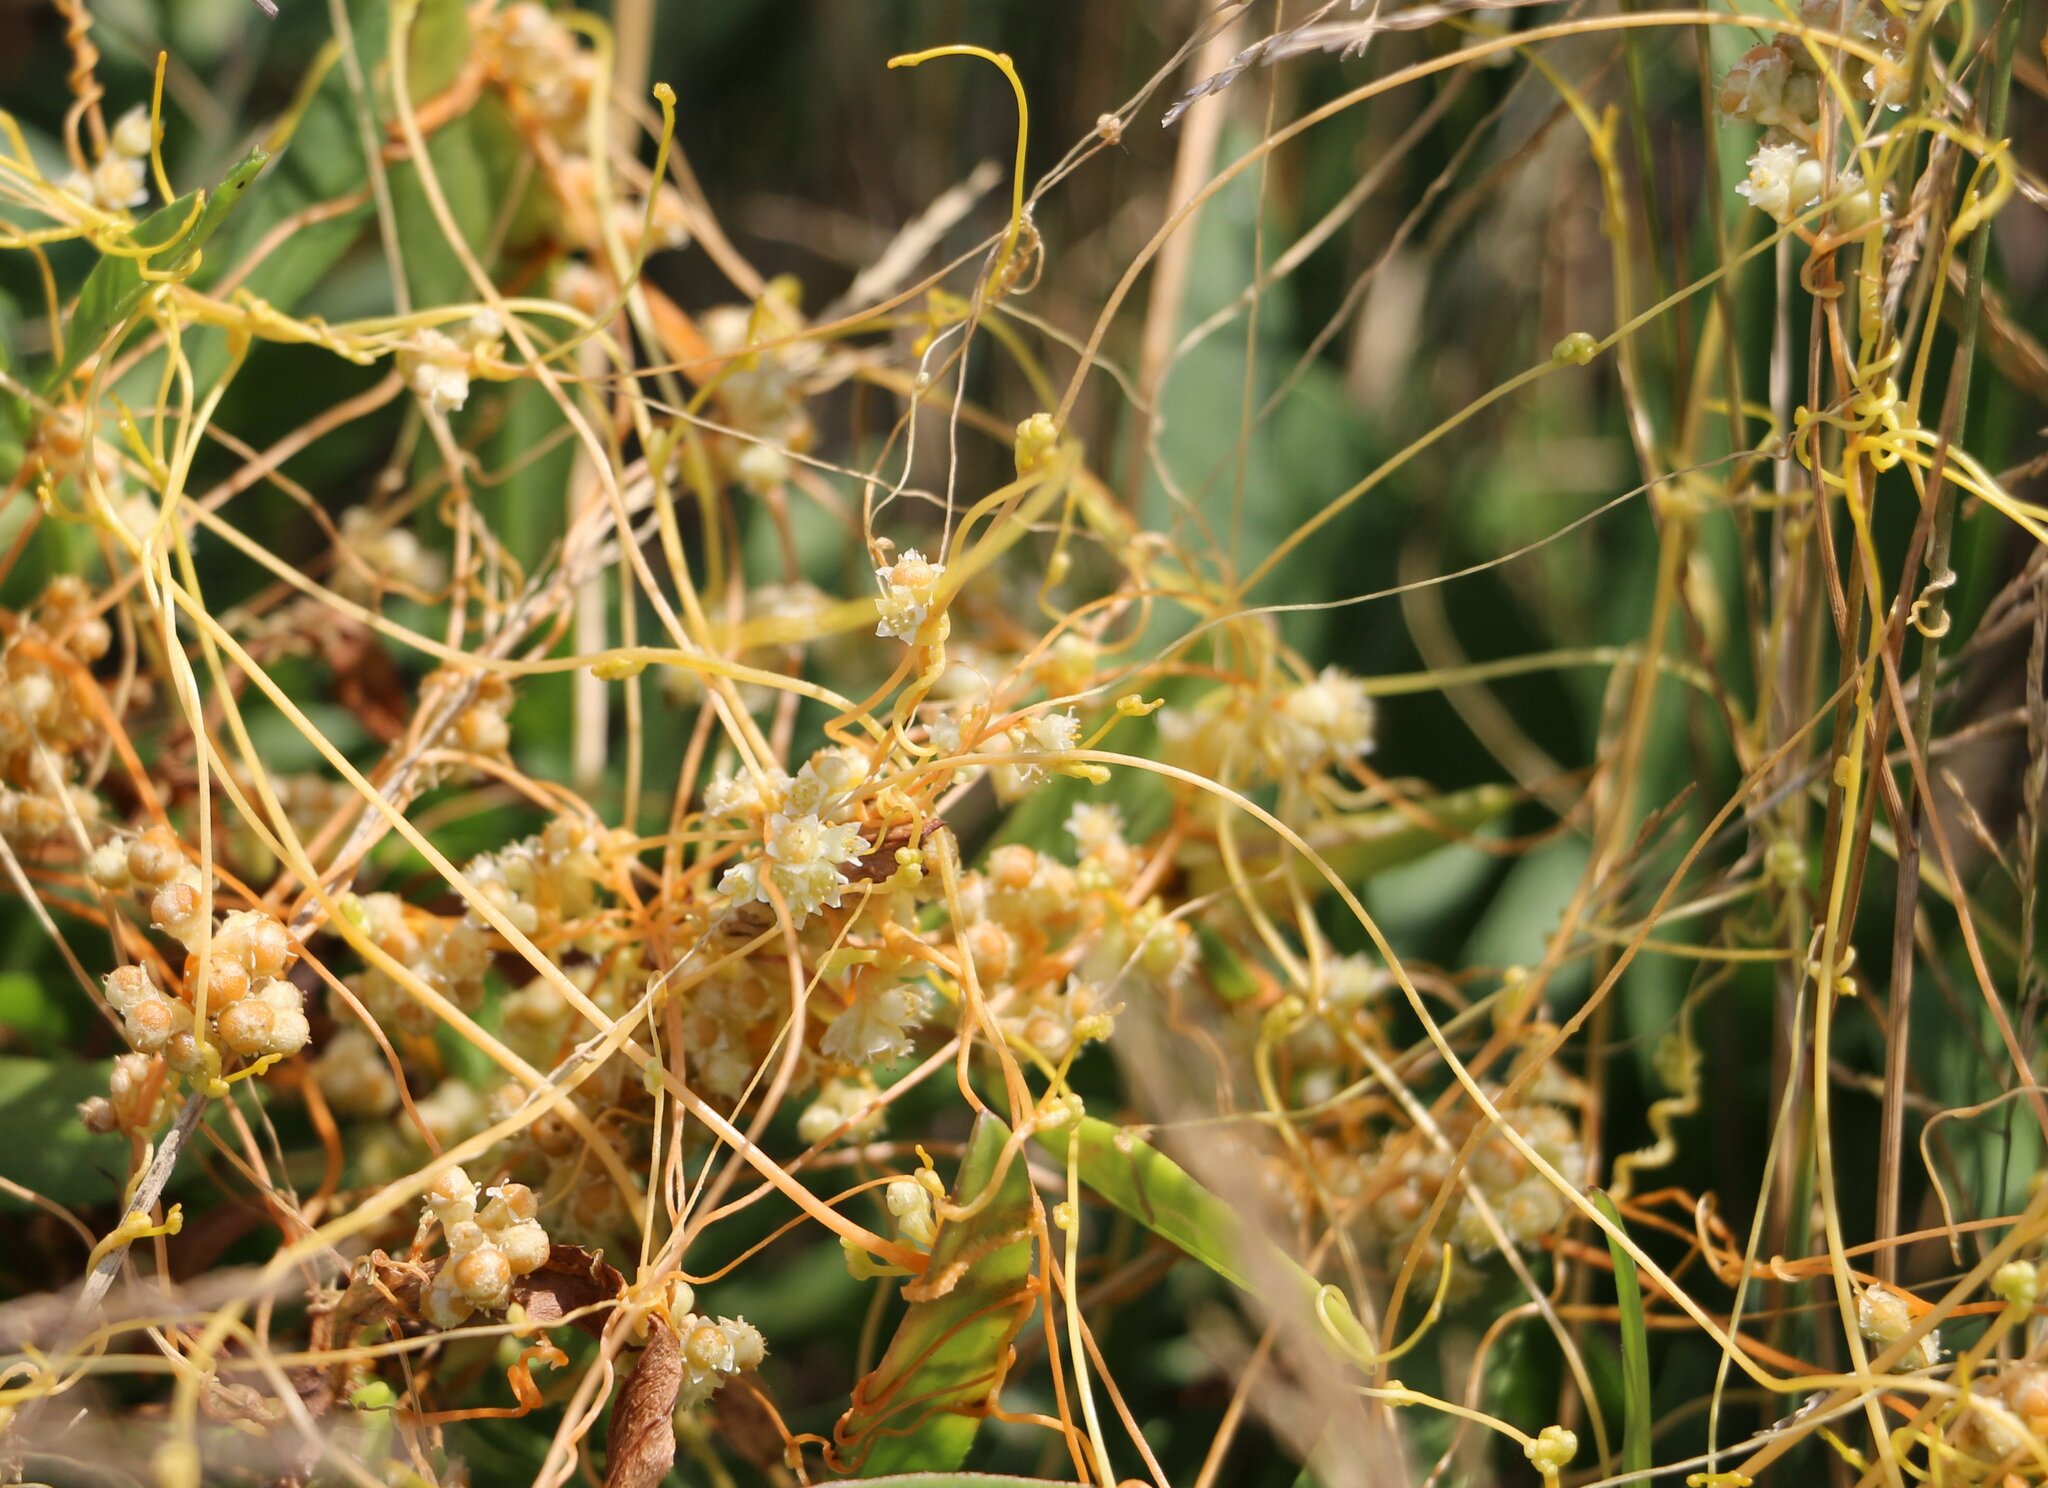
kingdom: Plantae
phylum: Tracheophyta
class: Magnoliopsida
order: Solanales
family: Convolvulaceae
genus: Cuscuta
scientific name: Cuscuta campestris
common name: Yellow dodder
